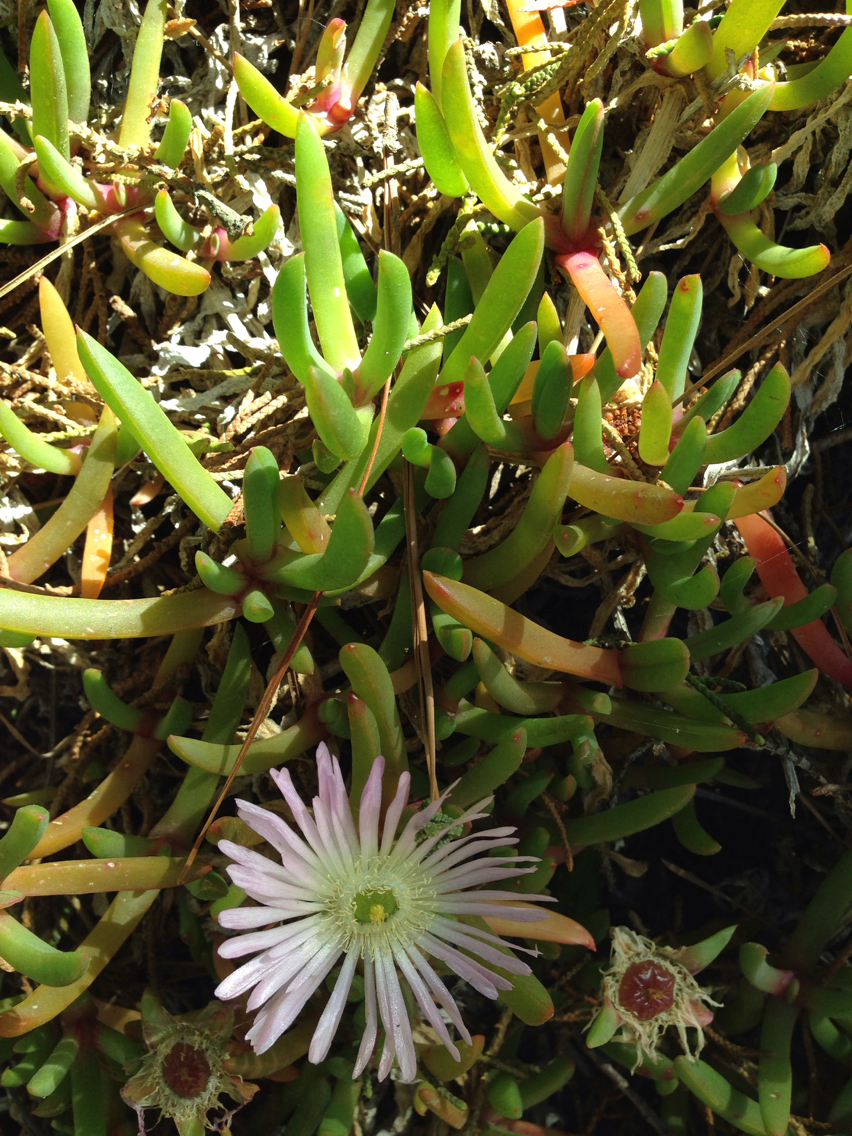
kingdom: Plantae
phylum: Tracheophyta
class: Magnoliopsida
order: Caryophyllales
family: Aizoaceae
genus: Disphyma
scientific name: Disphyma australe
